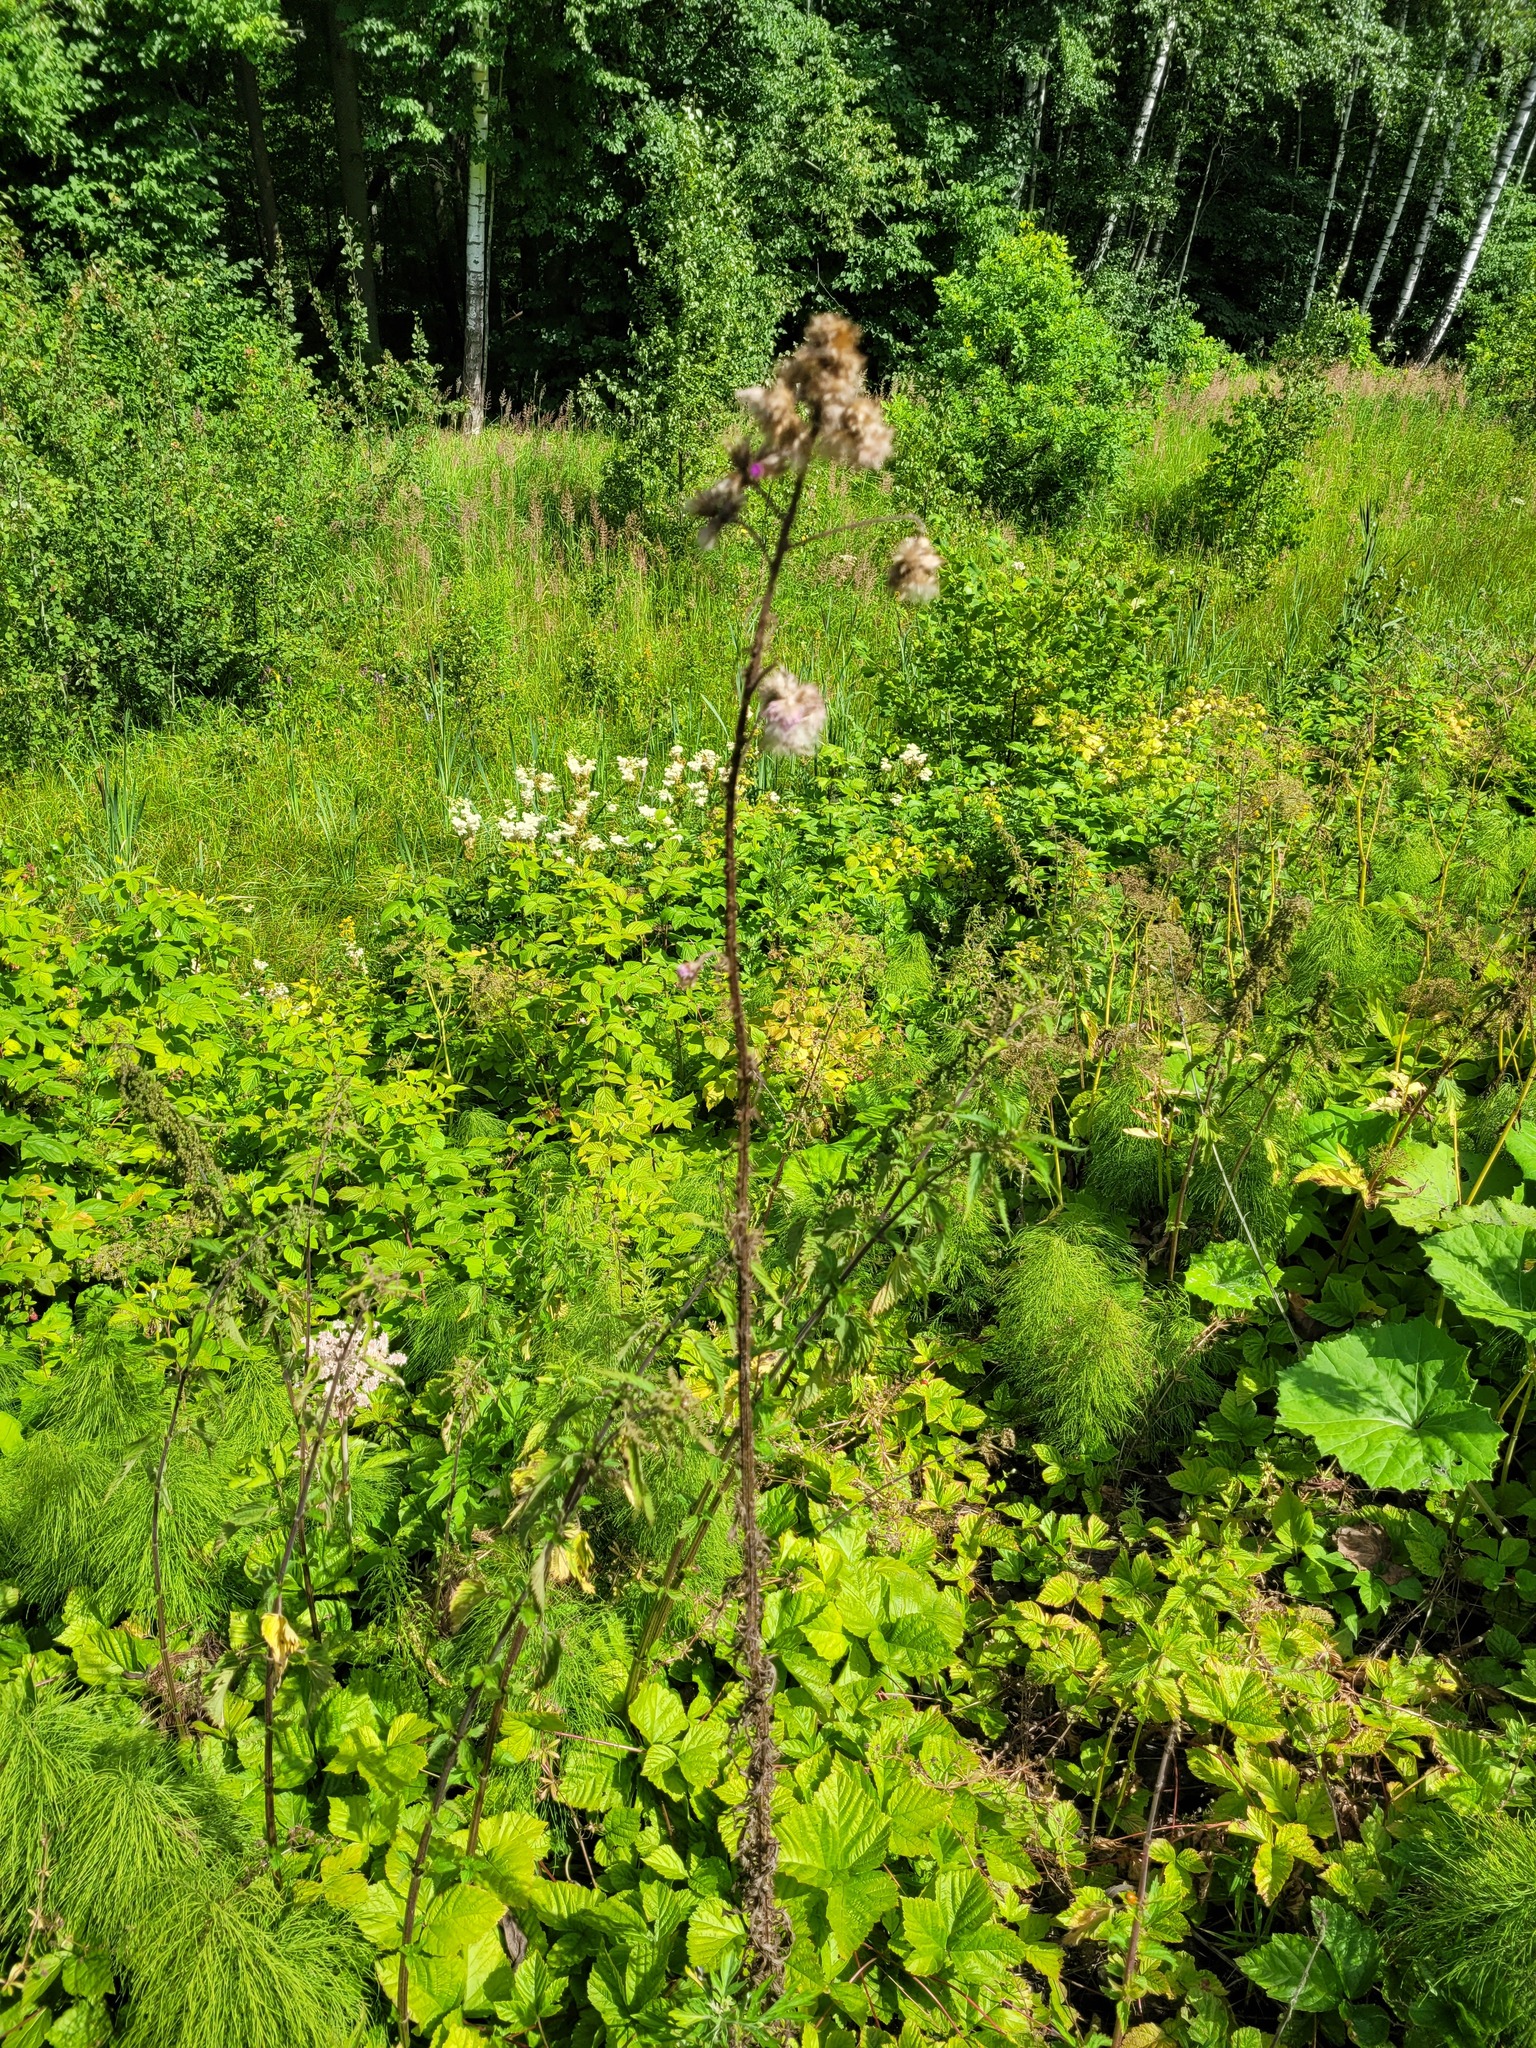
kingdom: Plantae
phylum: Tracheophyta
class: Magnoliopsida
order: Asterales
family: Asteraceae
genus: Cirsium
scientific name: Cirsium palustre
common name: Marsh thistle
